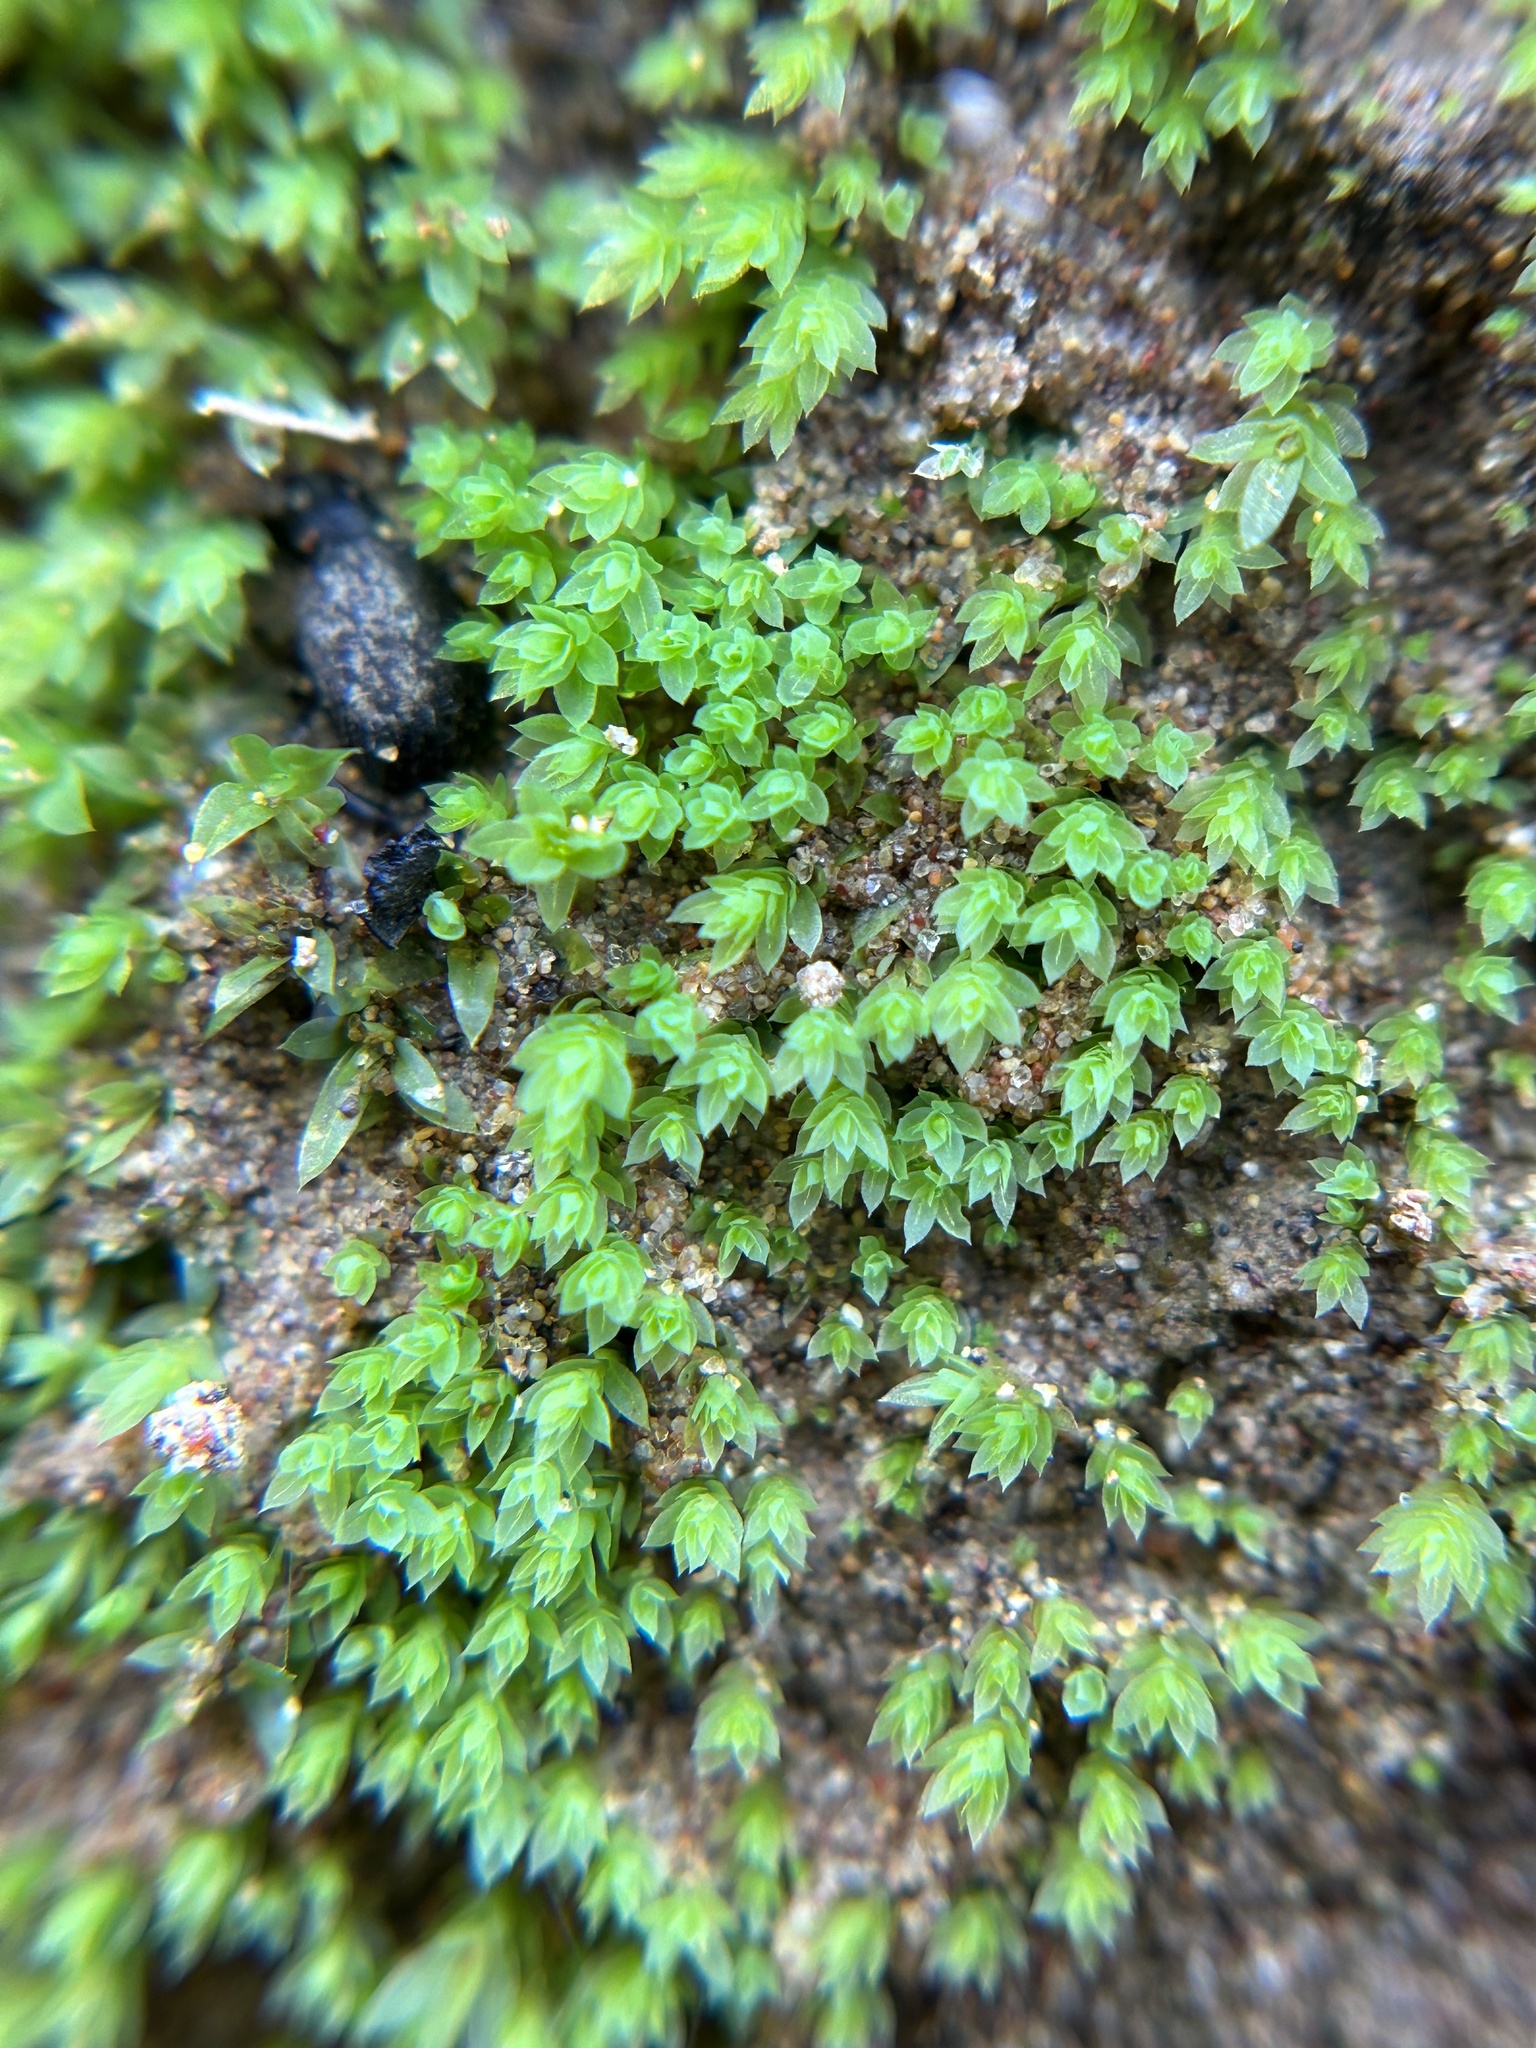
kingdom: Plantae
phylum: Bryophyta
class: Bryopsida
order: Bryales
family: Mniaceae
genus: Epipterygium
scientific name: Epipterygium tozeri
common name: Tozer's thread-moss
